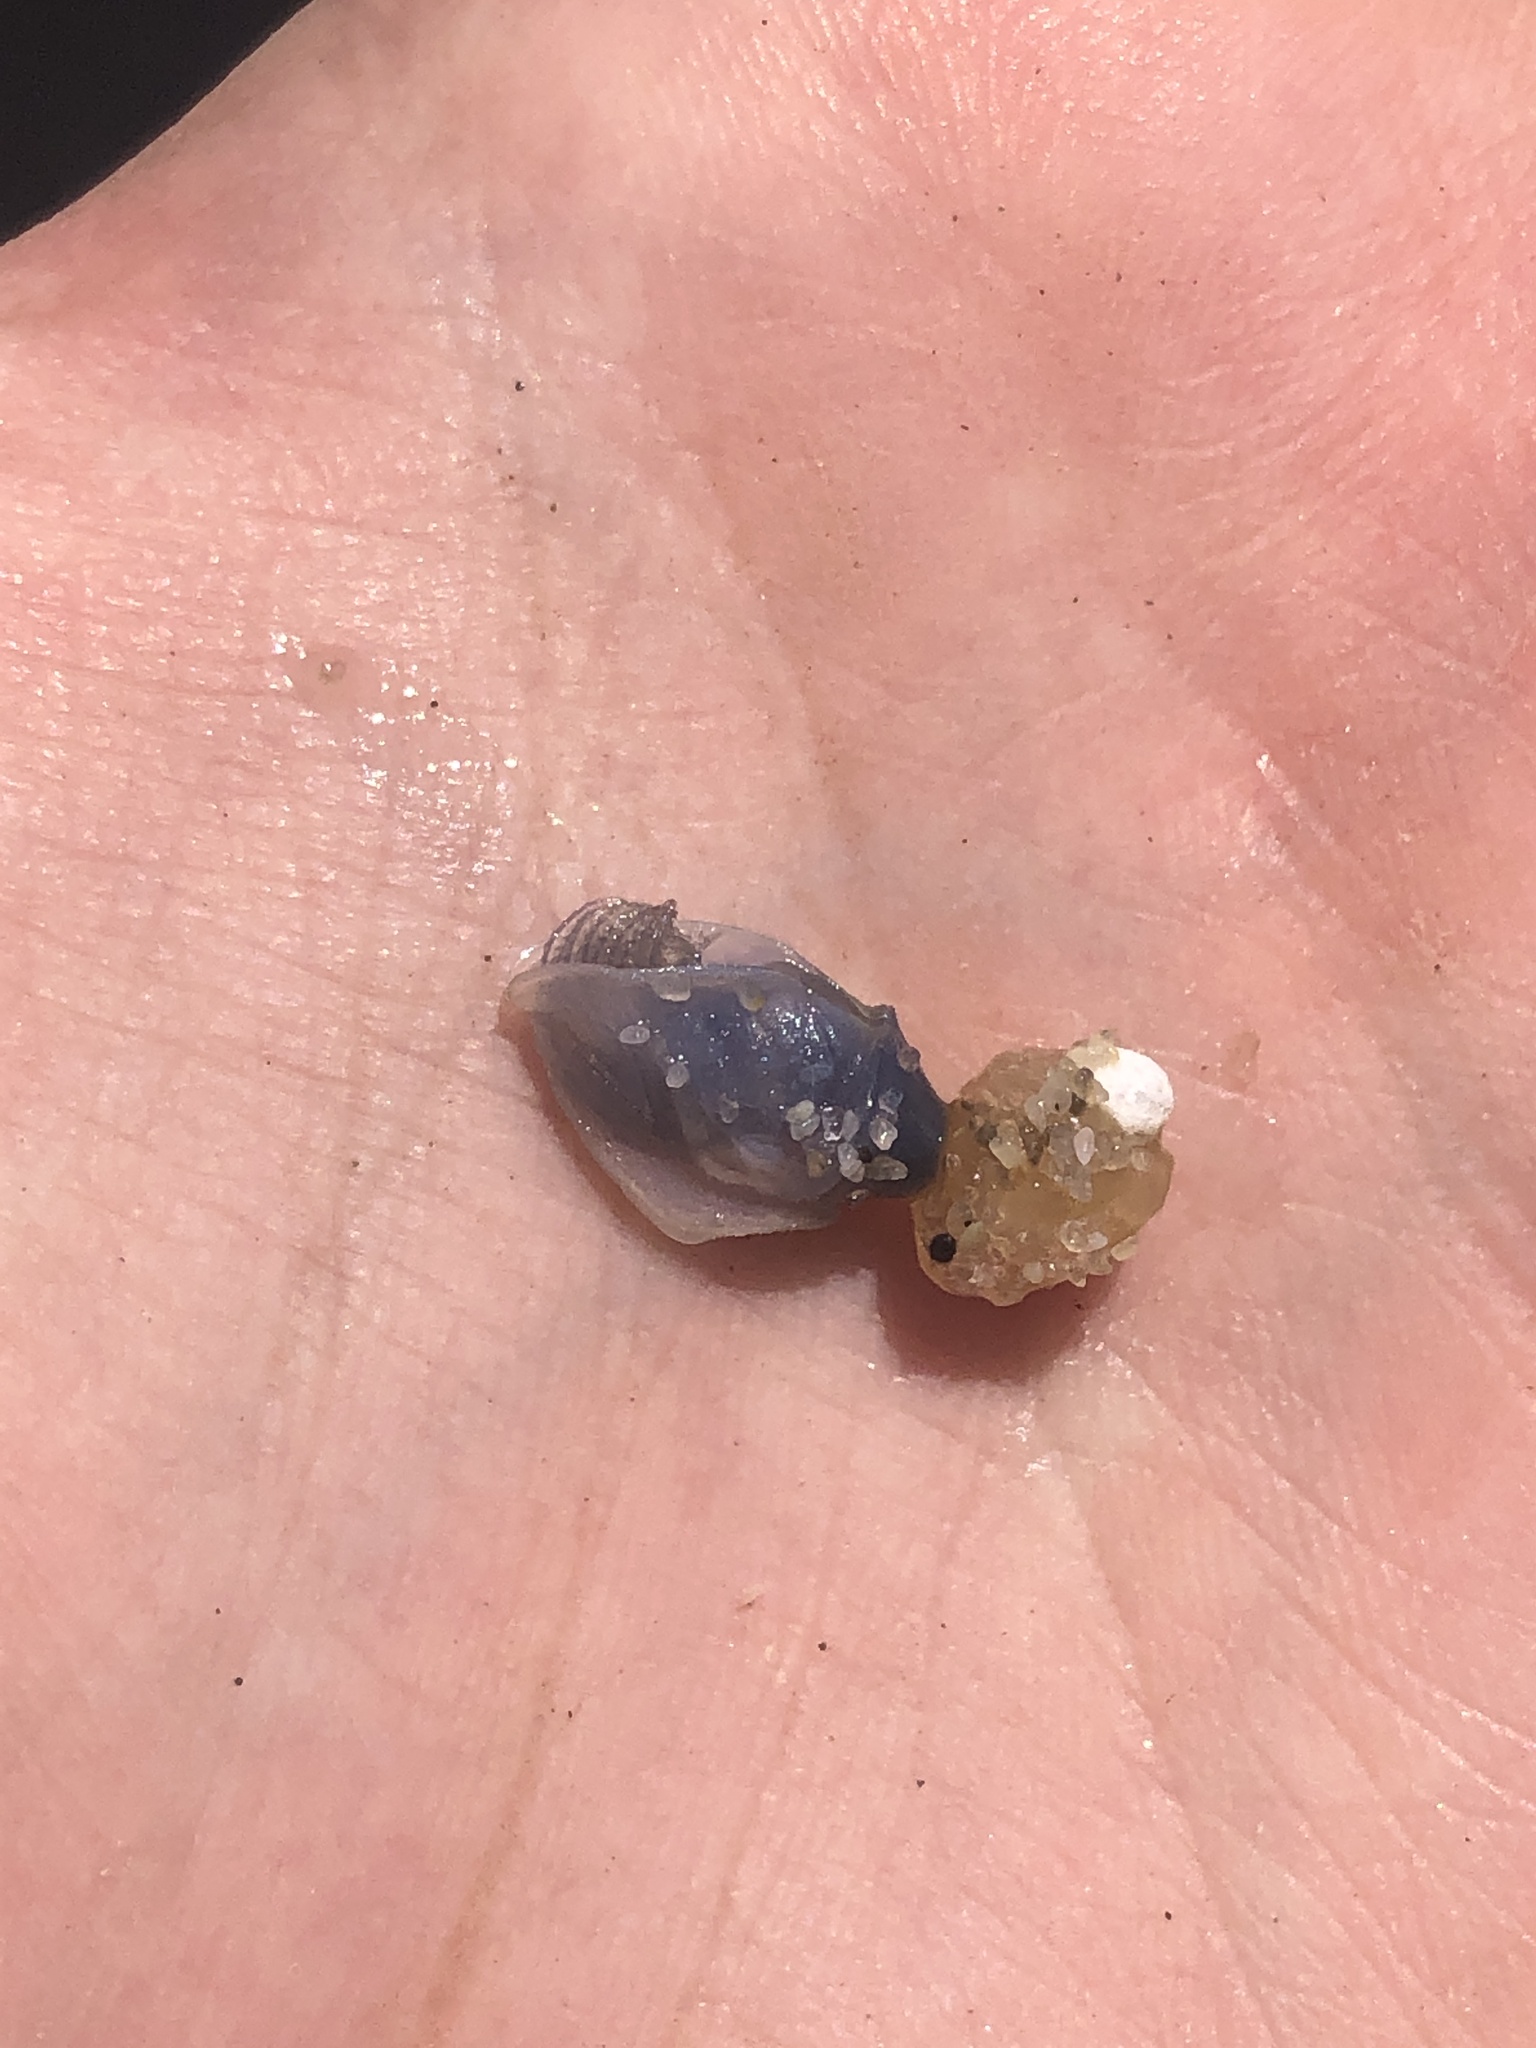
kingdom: Animalia
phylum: Arthropoda
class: Maxillopoda
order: Pedunculata
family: Lepadidae
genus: Dosima
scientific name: Dosima fascicularis
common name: Buoy barnacle
